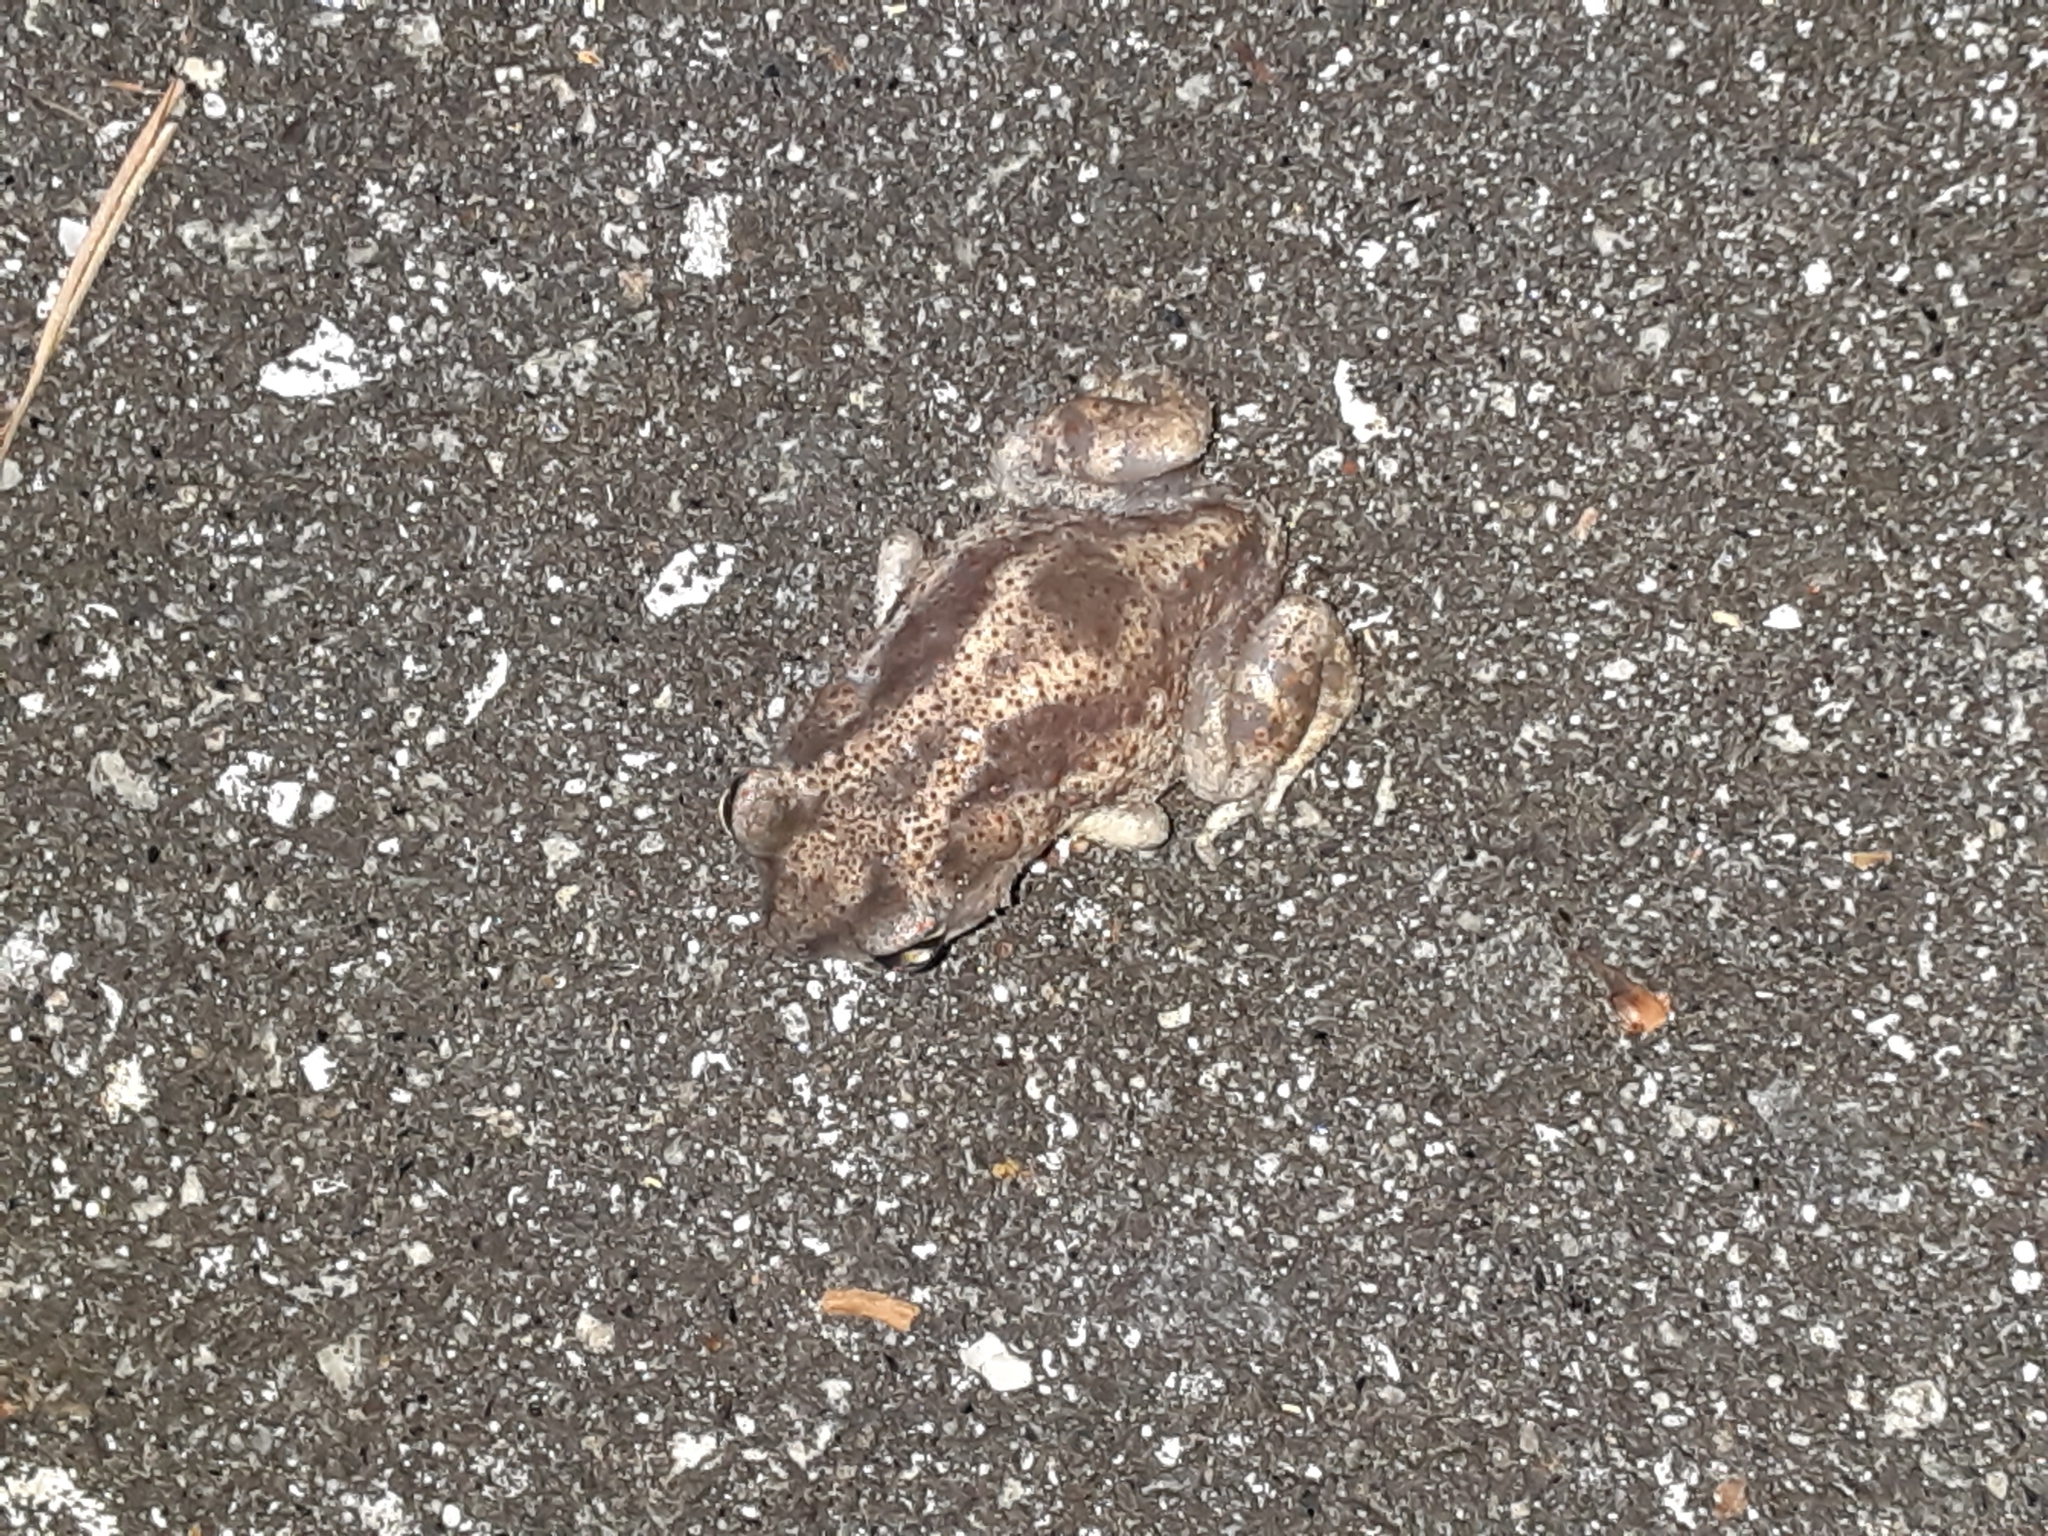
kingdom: Animalia
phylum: Chordata
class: Amphibia
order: Anura
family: Scaphiopodidae
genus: Scaphiopus
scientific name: Scaphiopus holbrookii
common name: Eastern spadefoot toad
